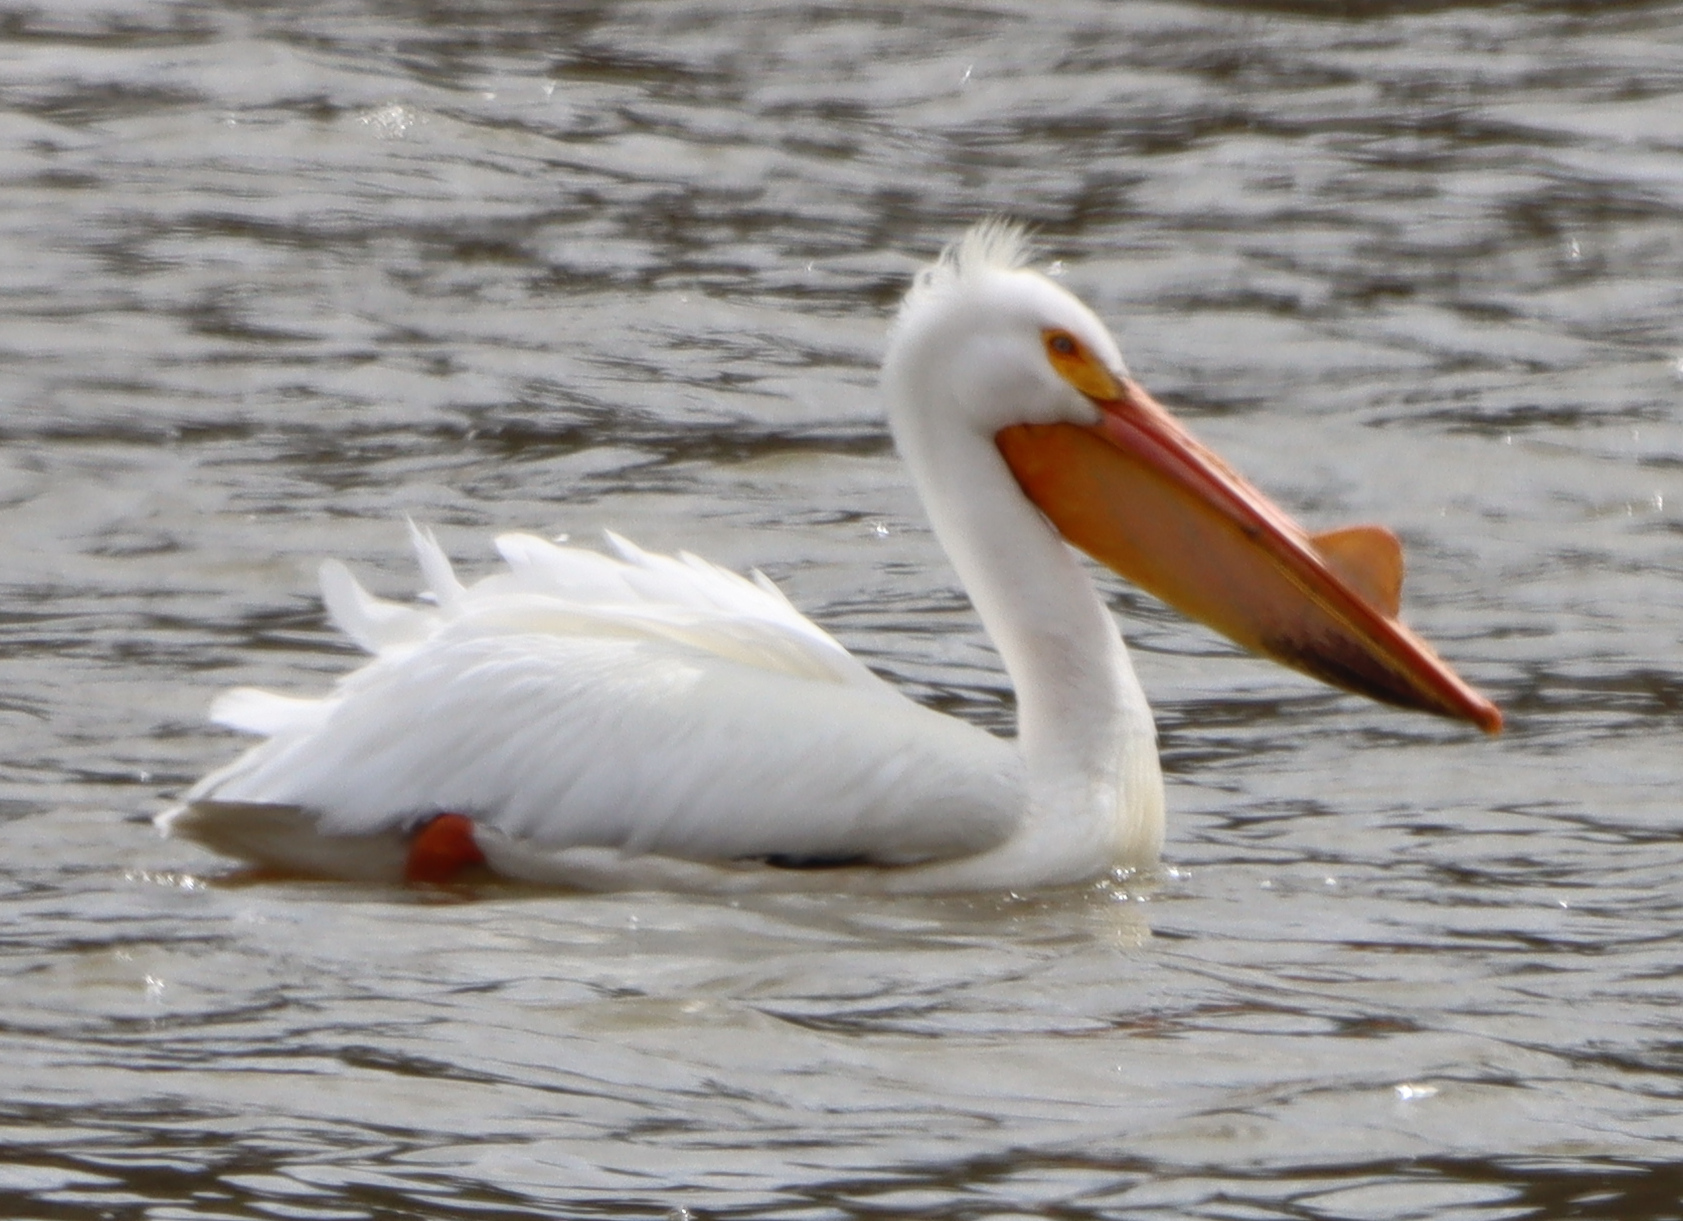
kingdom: Animalia
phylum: Chordata
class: Aves
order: Pelecaniformes
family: Pelecanidae
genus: Pelecanus
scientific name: Pelecanus erythrorhynchos
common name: American white pelican
